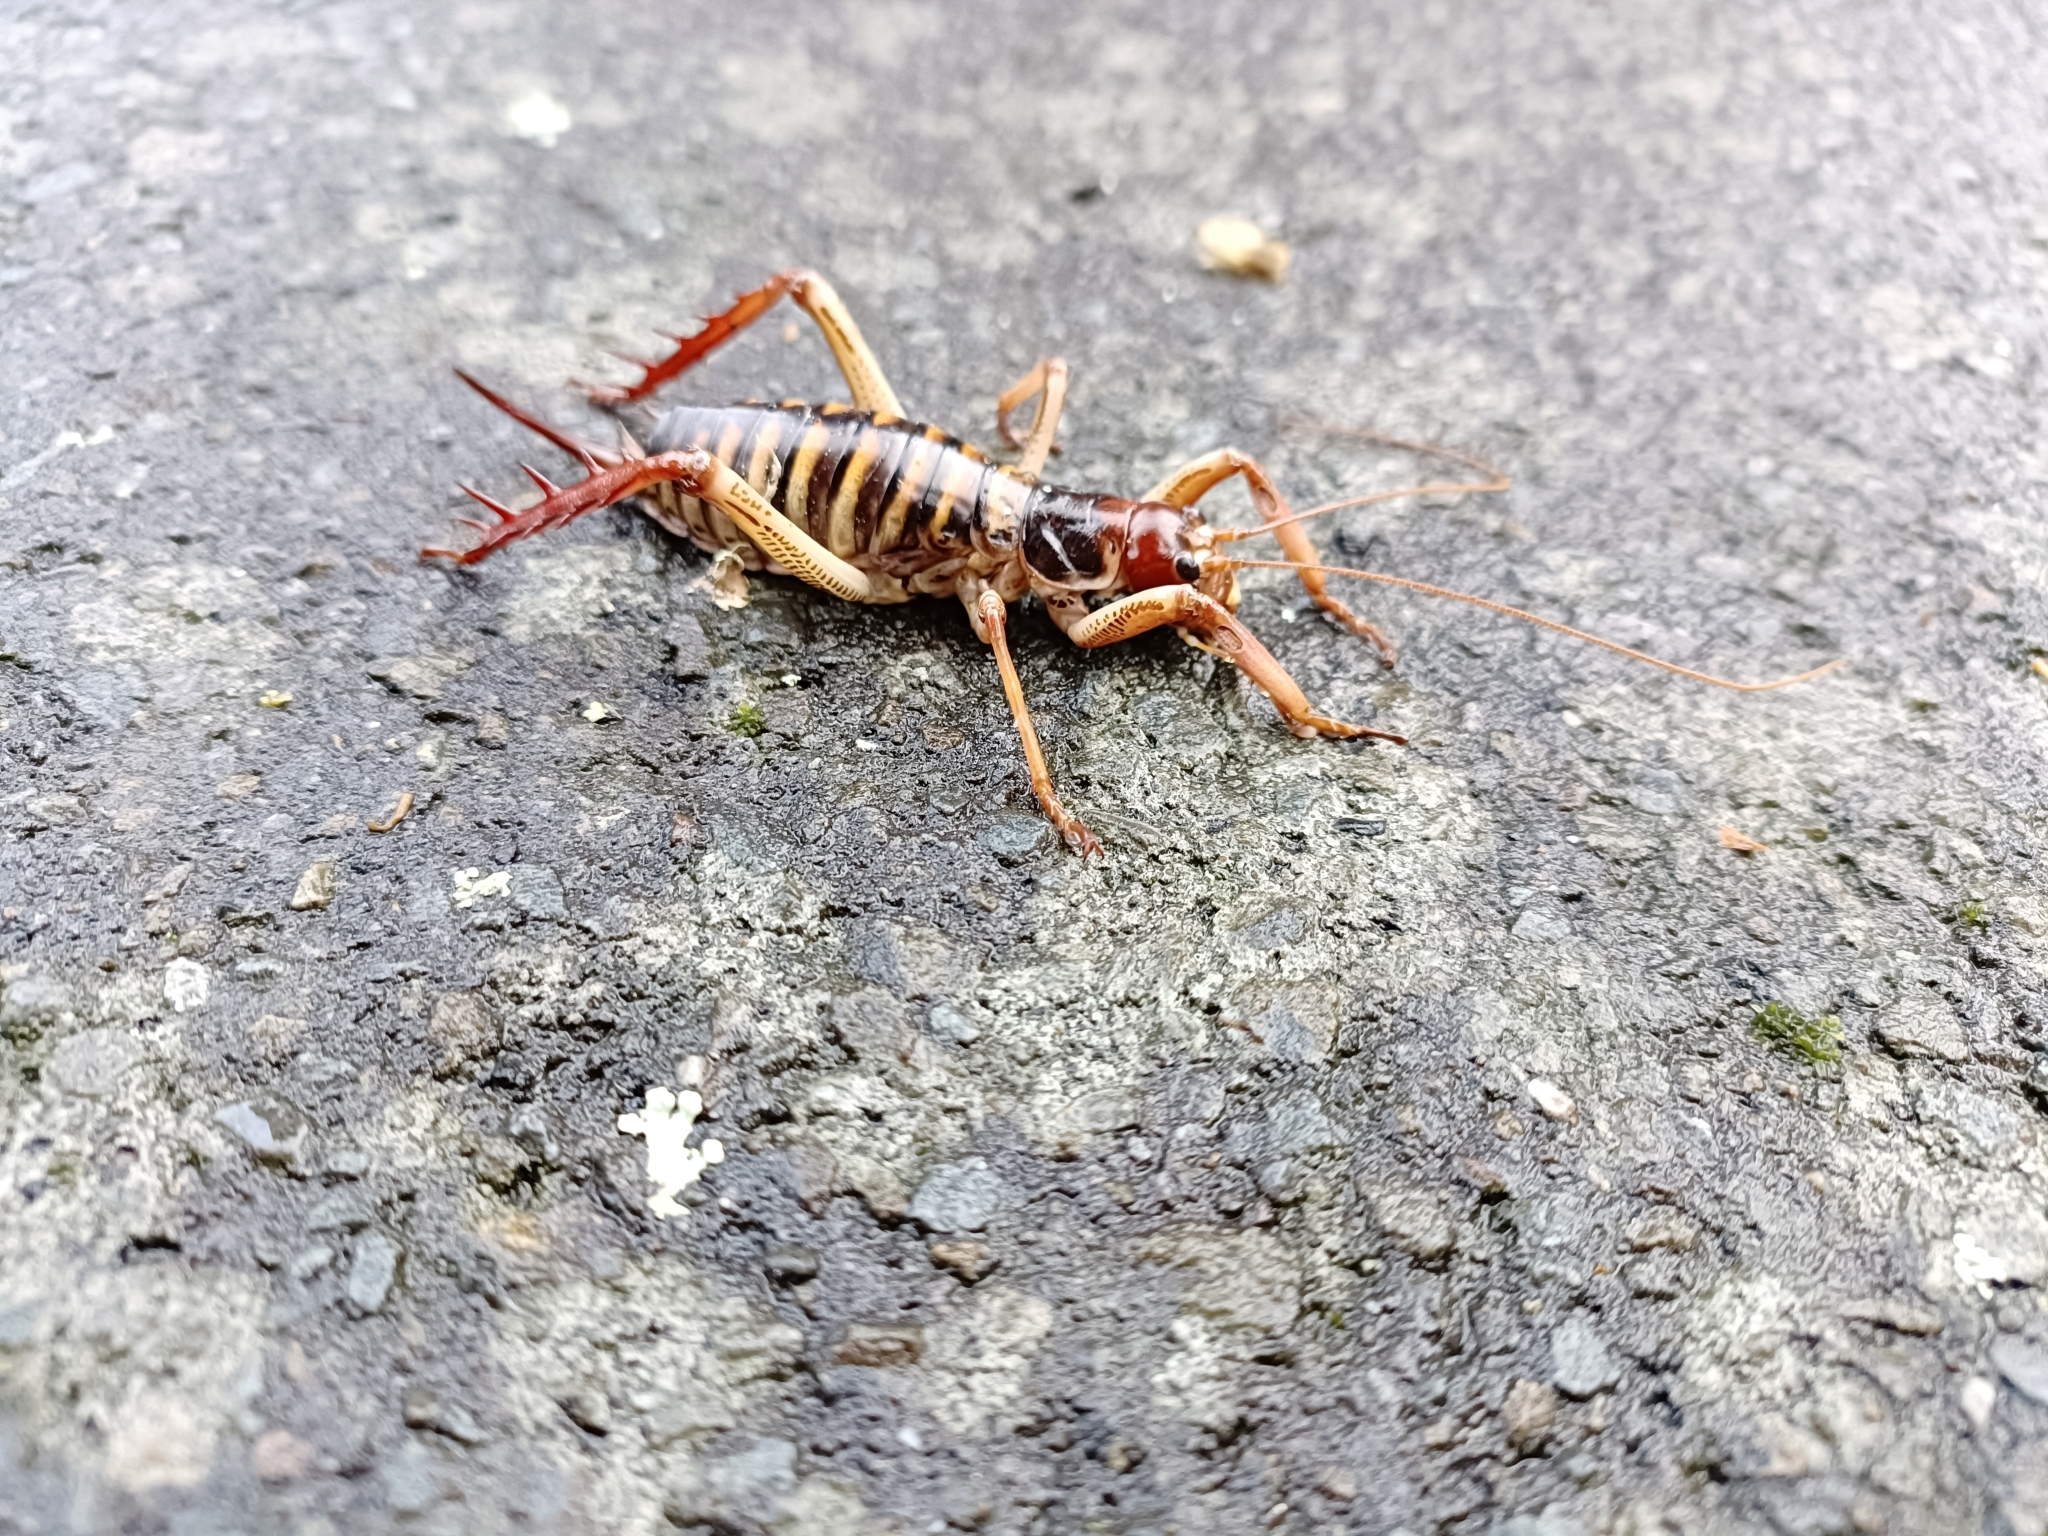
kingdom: Animalia
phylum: Arthropoda
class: Insecta
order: Orthoptera
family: Anostostomatidae
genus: Hemideina
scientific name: Hemideina crassidens
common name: Wellington tree weta
